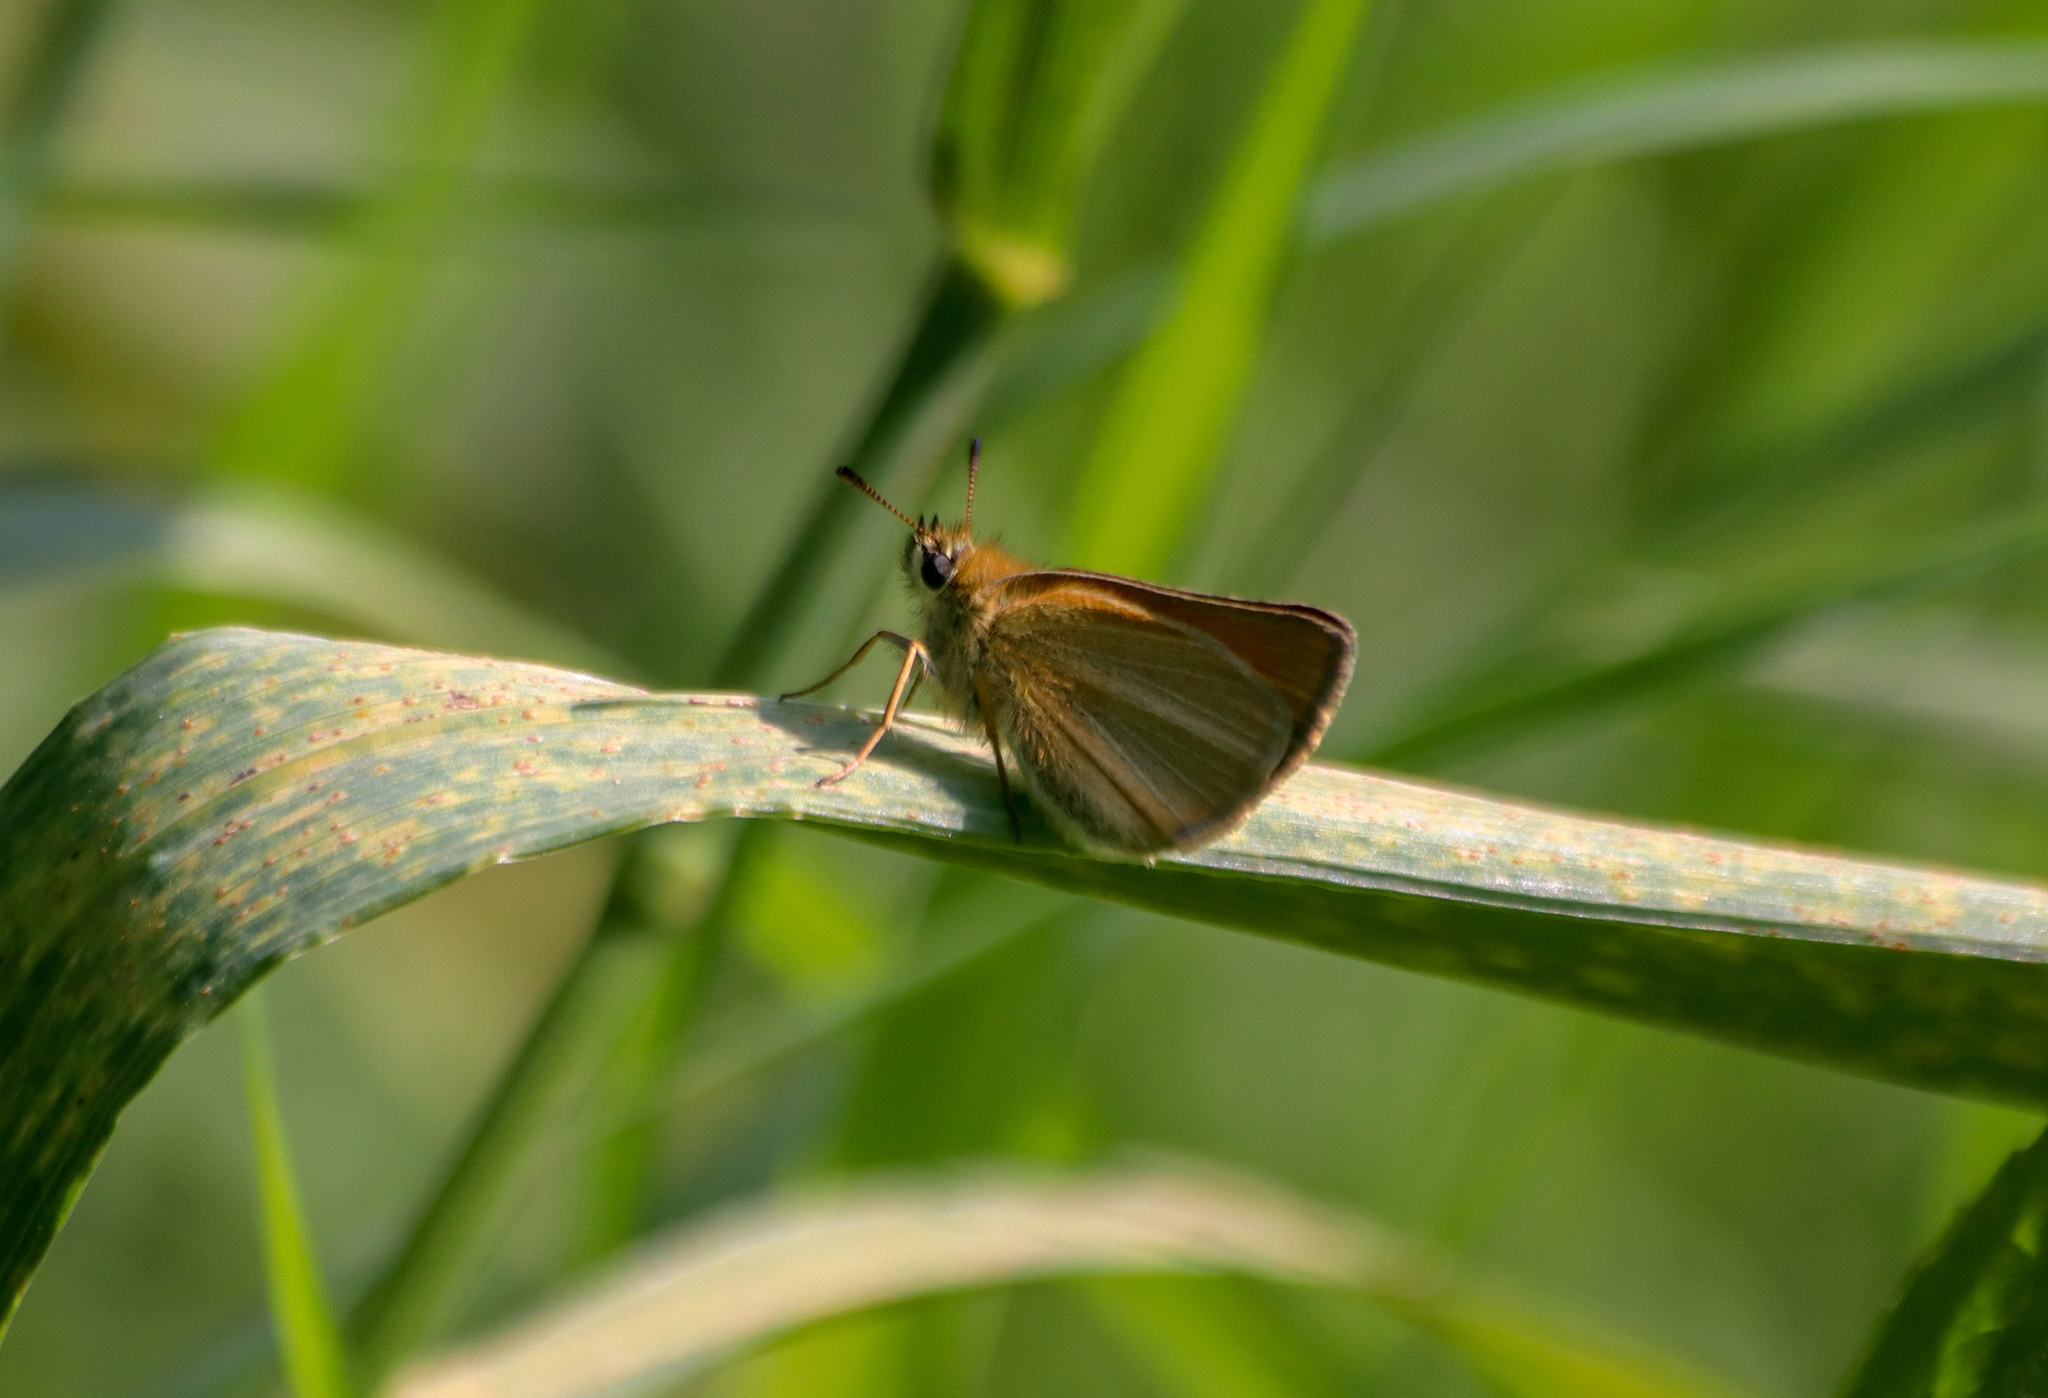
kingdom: Animalia
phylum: Arthropoda
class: Insecta
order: Lepidoptera
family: Hesperiidae
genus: Thymelicus
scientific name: Thymelicus lineola
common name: Essex skipper
